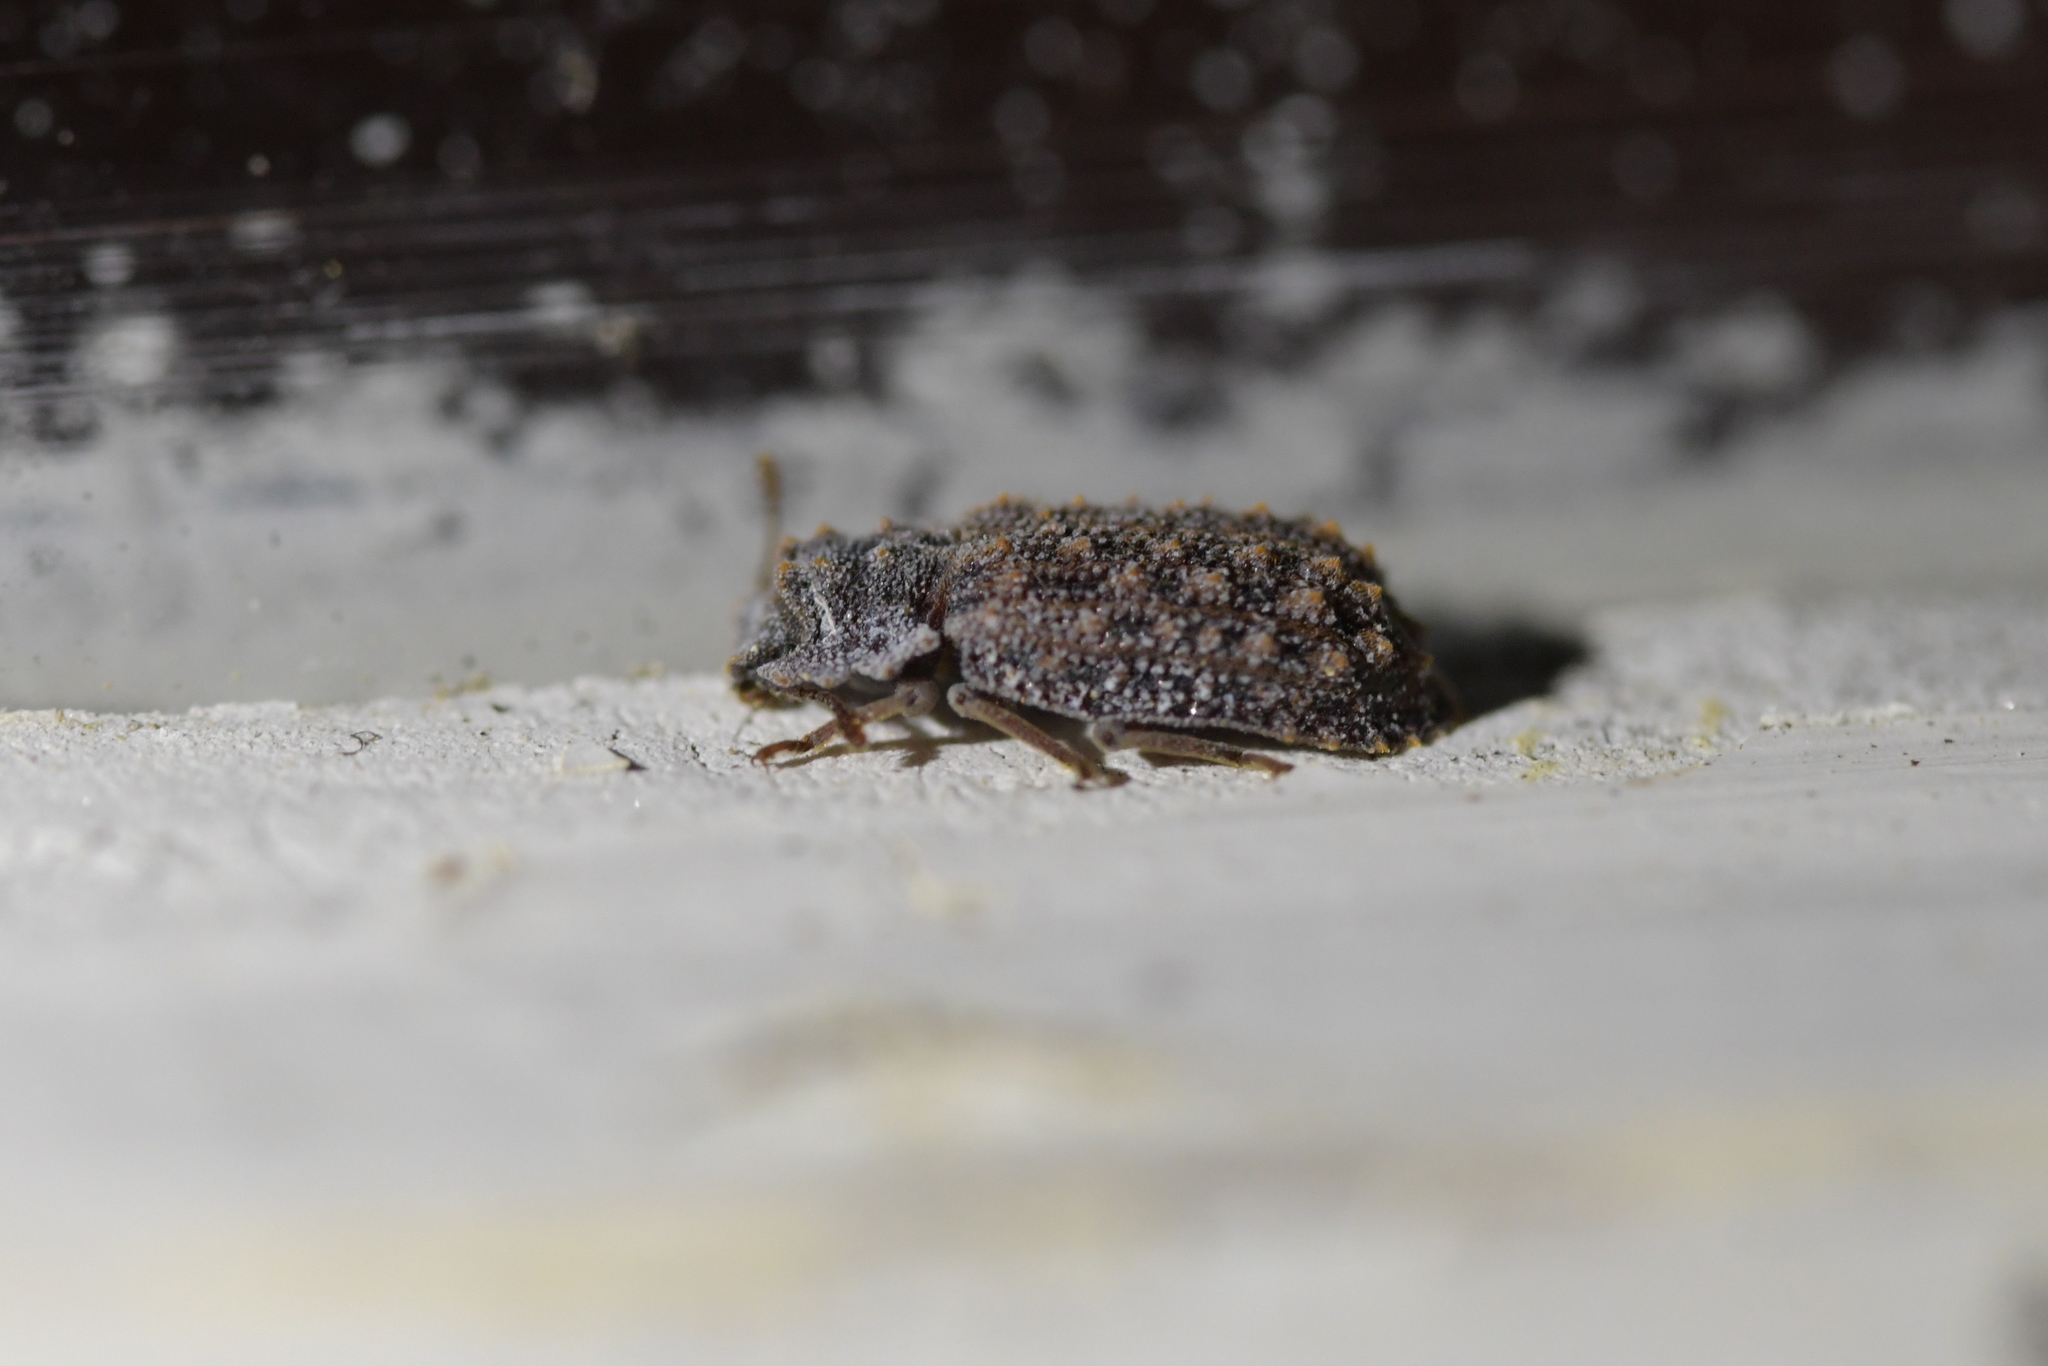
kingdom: Animalia
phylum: Arthropoda
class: Insecta
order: Coleoptera
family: Zopheridae
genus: Pristoderus
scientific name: Pristoderus
